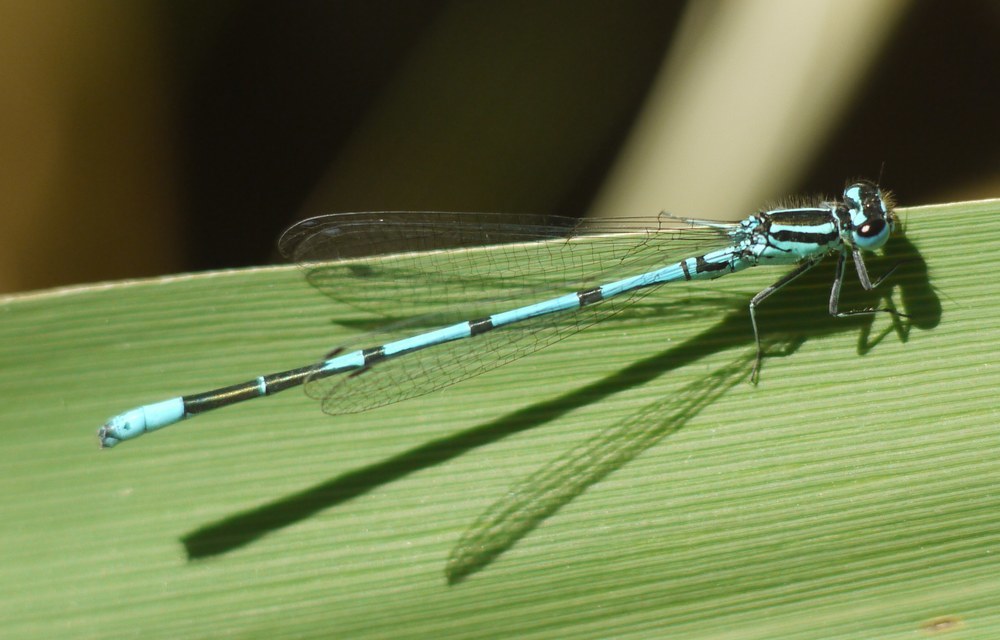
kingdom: Animalia
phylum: Arthropoda
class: Insecta
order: Odonata
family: Coenagrionidae
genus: Coenagrion
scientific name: Coenagrion puella
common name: Azure damselfly
